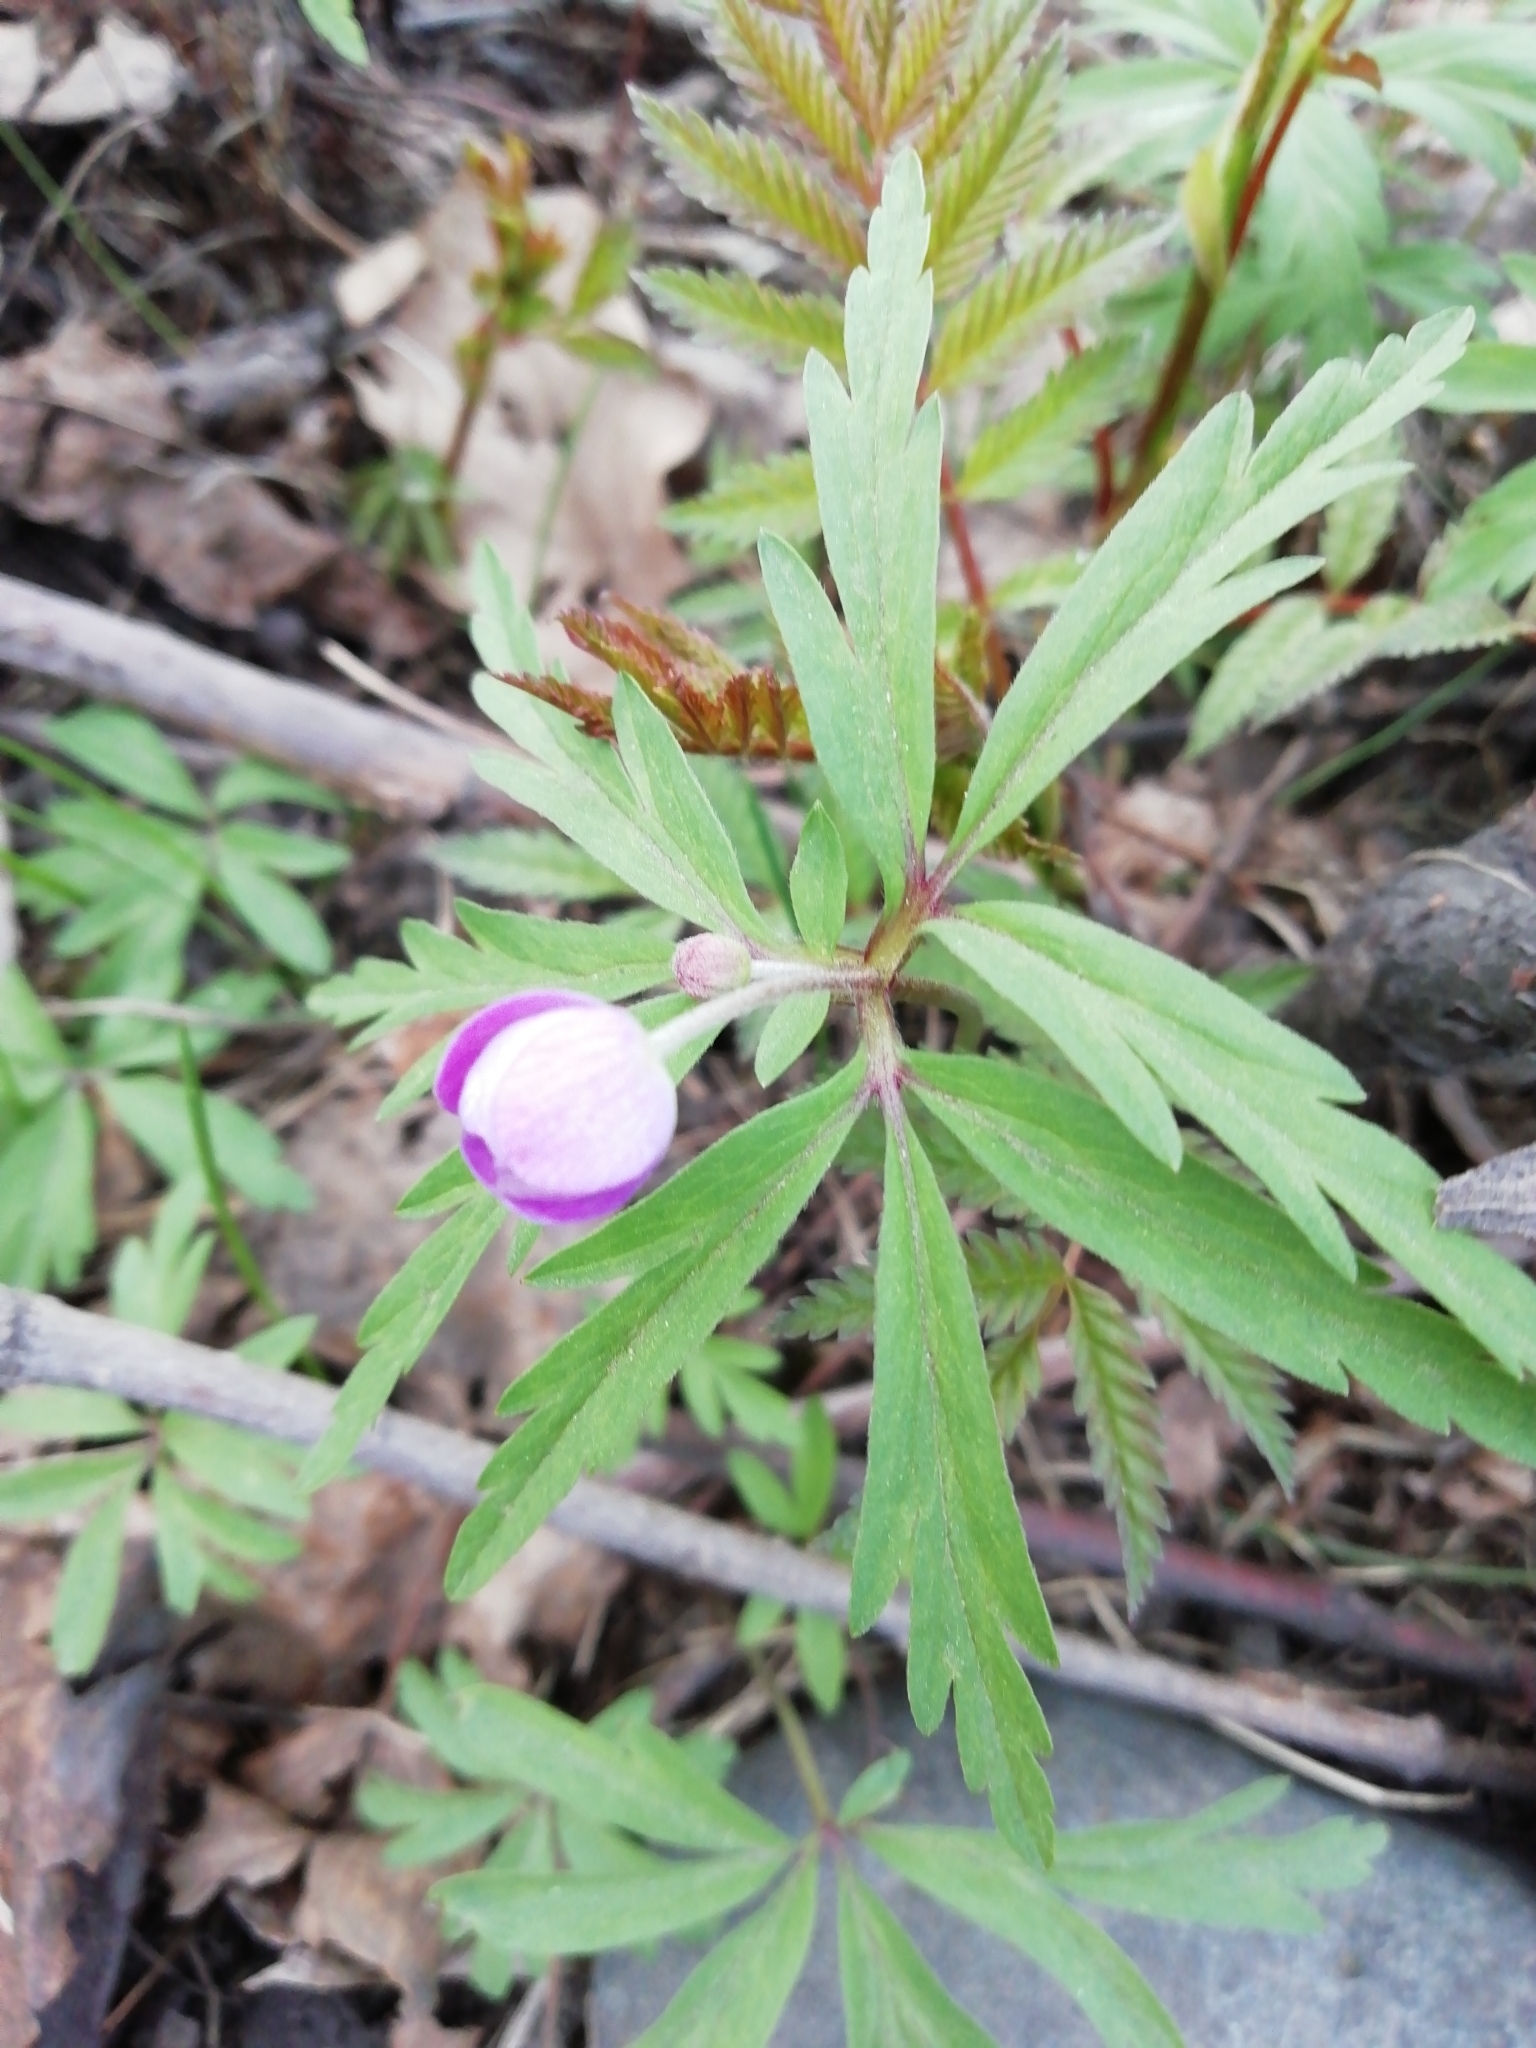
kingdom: Plantae
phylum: Tracheophyta
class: Magnoliopsida
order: Ranunculales
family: Ranunculaceae
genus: Anemone
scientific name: Anemone caerulea
